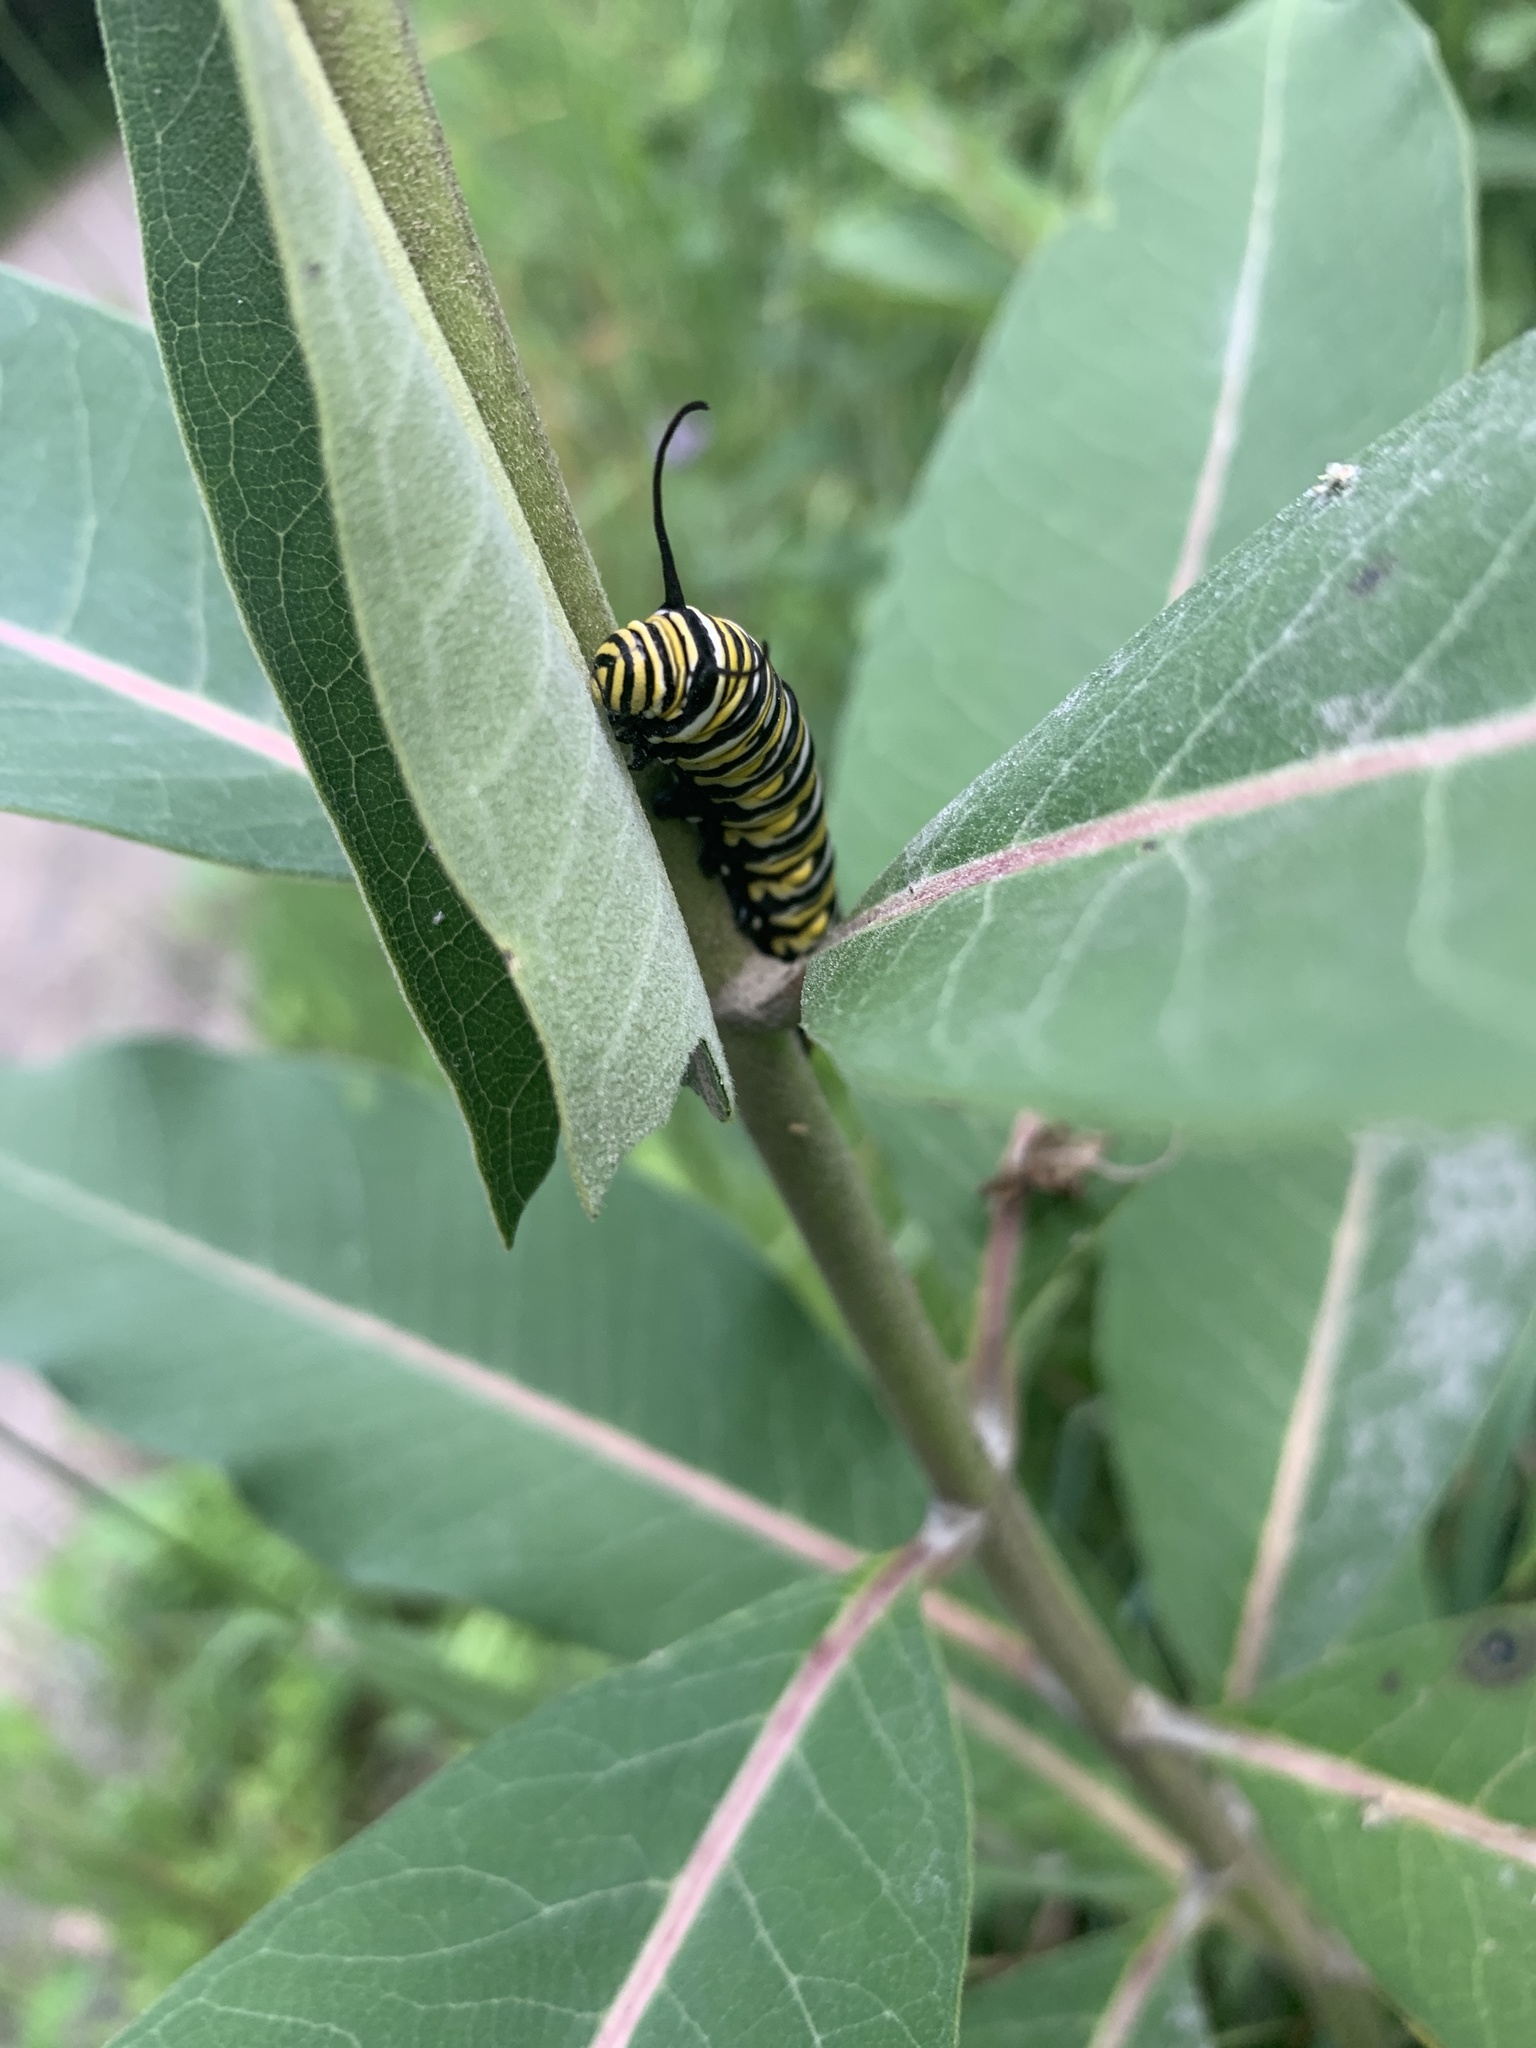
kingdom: Animalia
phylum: Arthropoda
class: Insecta
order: Lepidoptera
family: Nymphalidae
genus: Danaus
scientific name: Danaus plexippus
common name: Monarch
